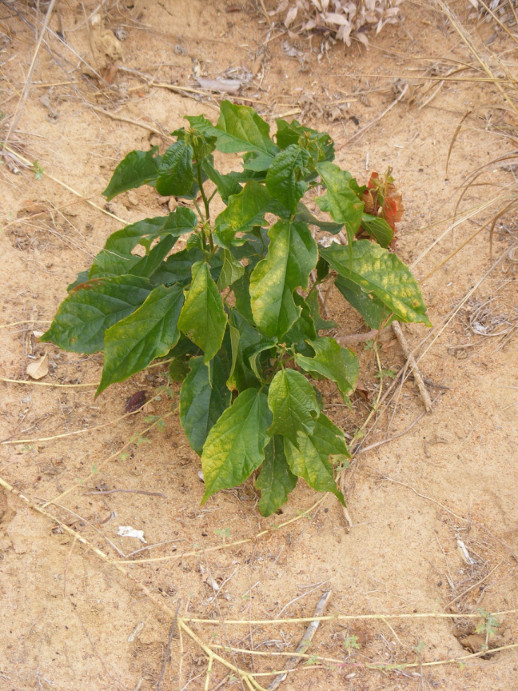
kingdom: Plantae
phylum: Tracheophyta
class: Magnoliopsida
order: Malpighiales
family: Euphorbiaceae
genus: Alchornea
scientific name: Alchornea laxiflora
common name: Lowveld bead-string
